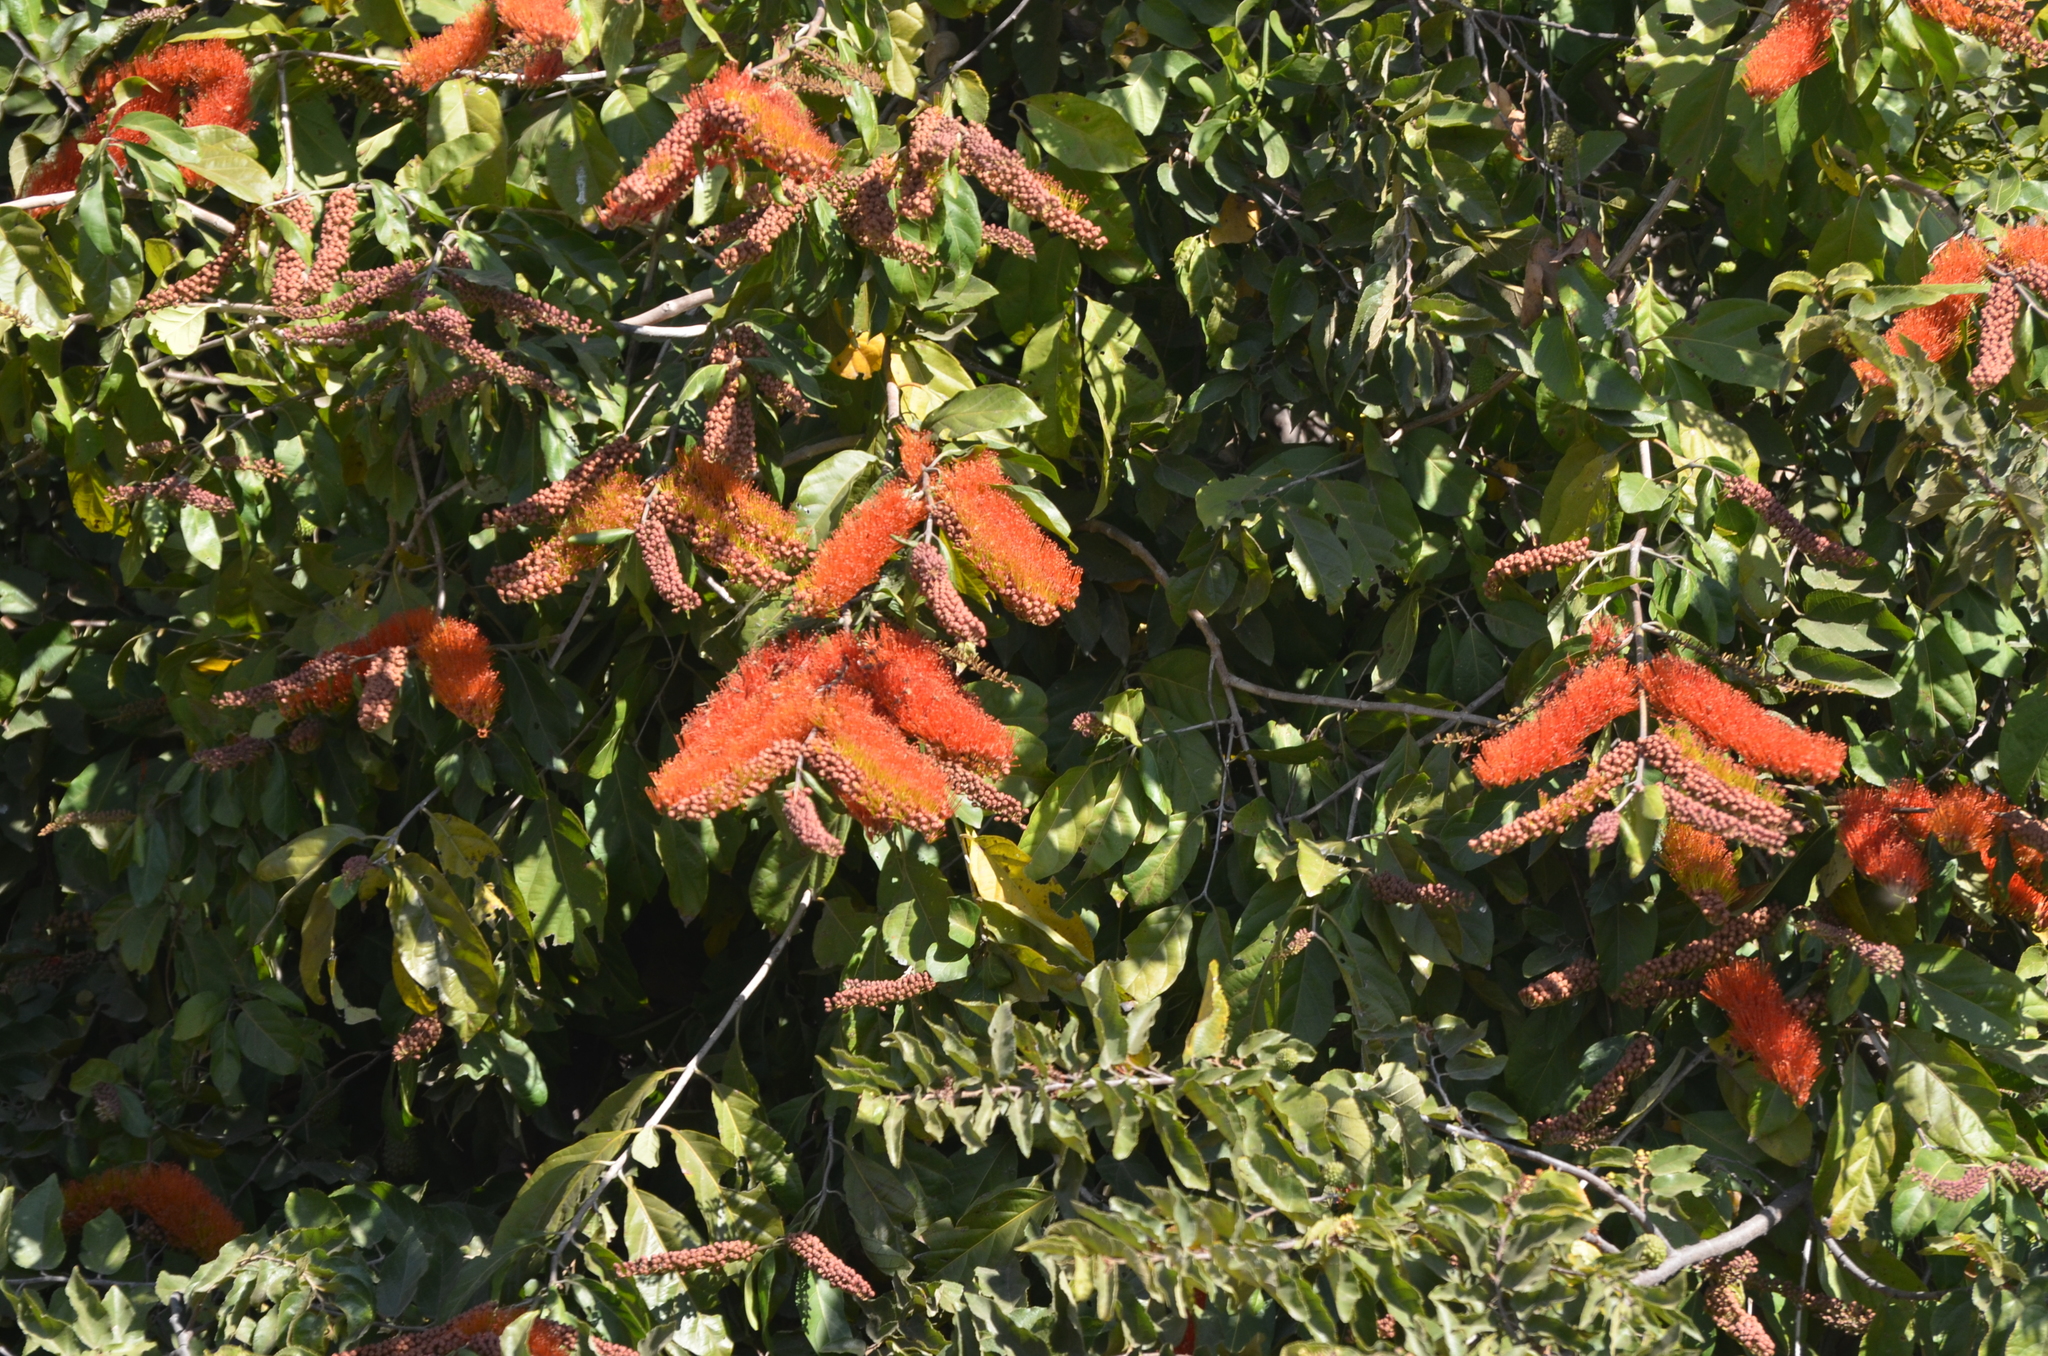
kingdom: Plantae
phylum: Tracheophyta
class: Magnoliopsida
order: Myrtales
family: Combretaceae
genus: Combretum
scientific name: Combretum farinosum
